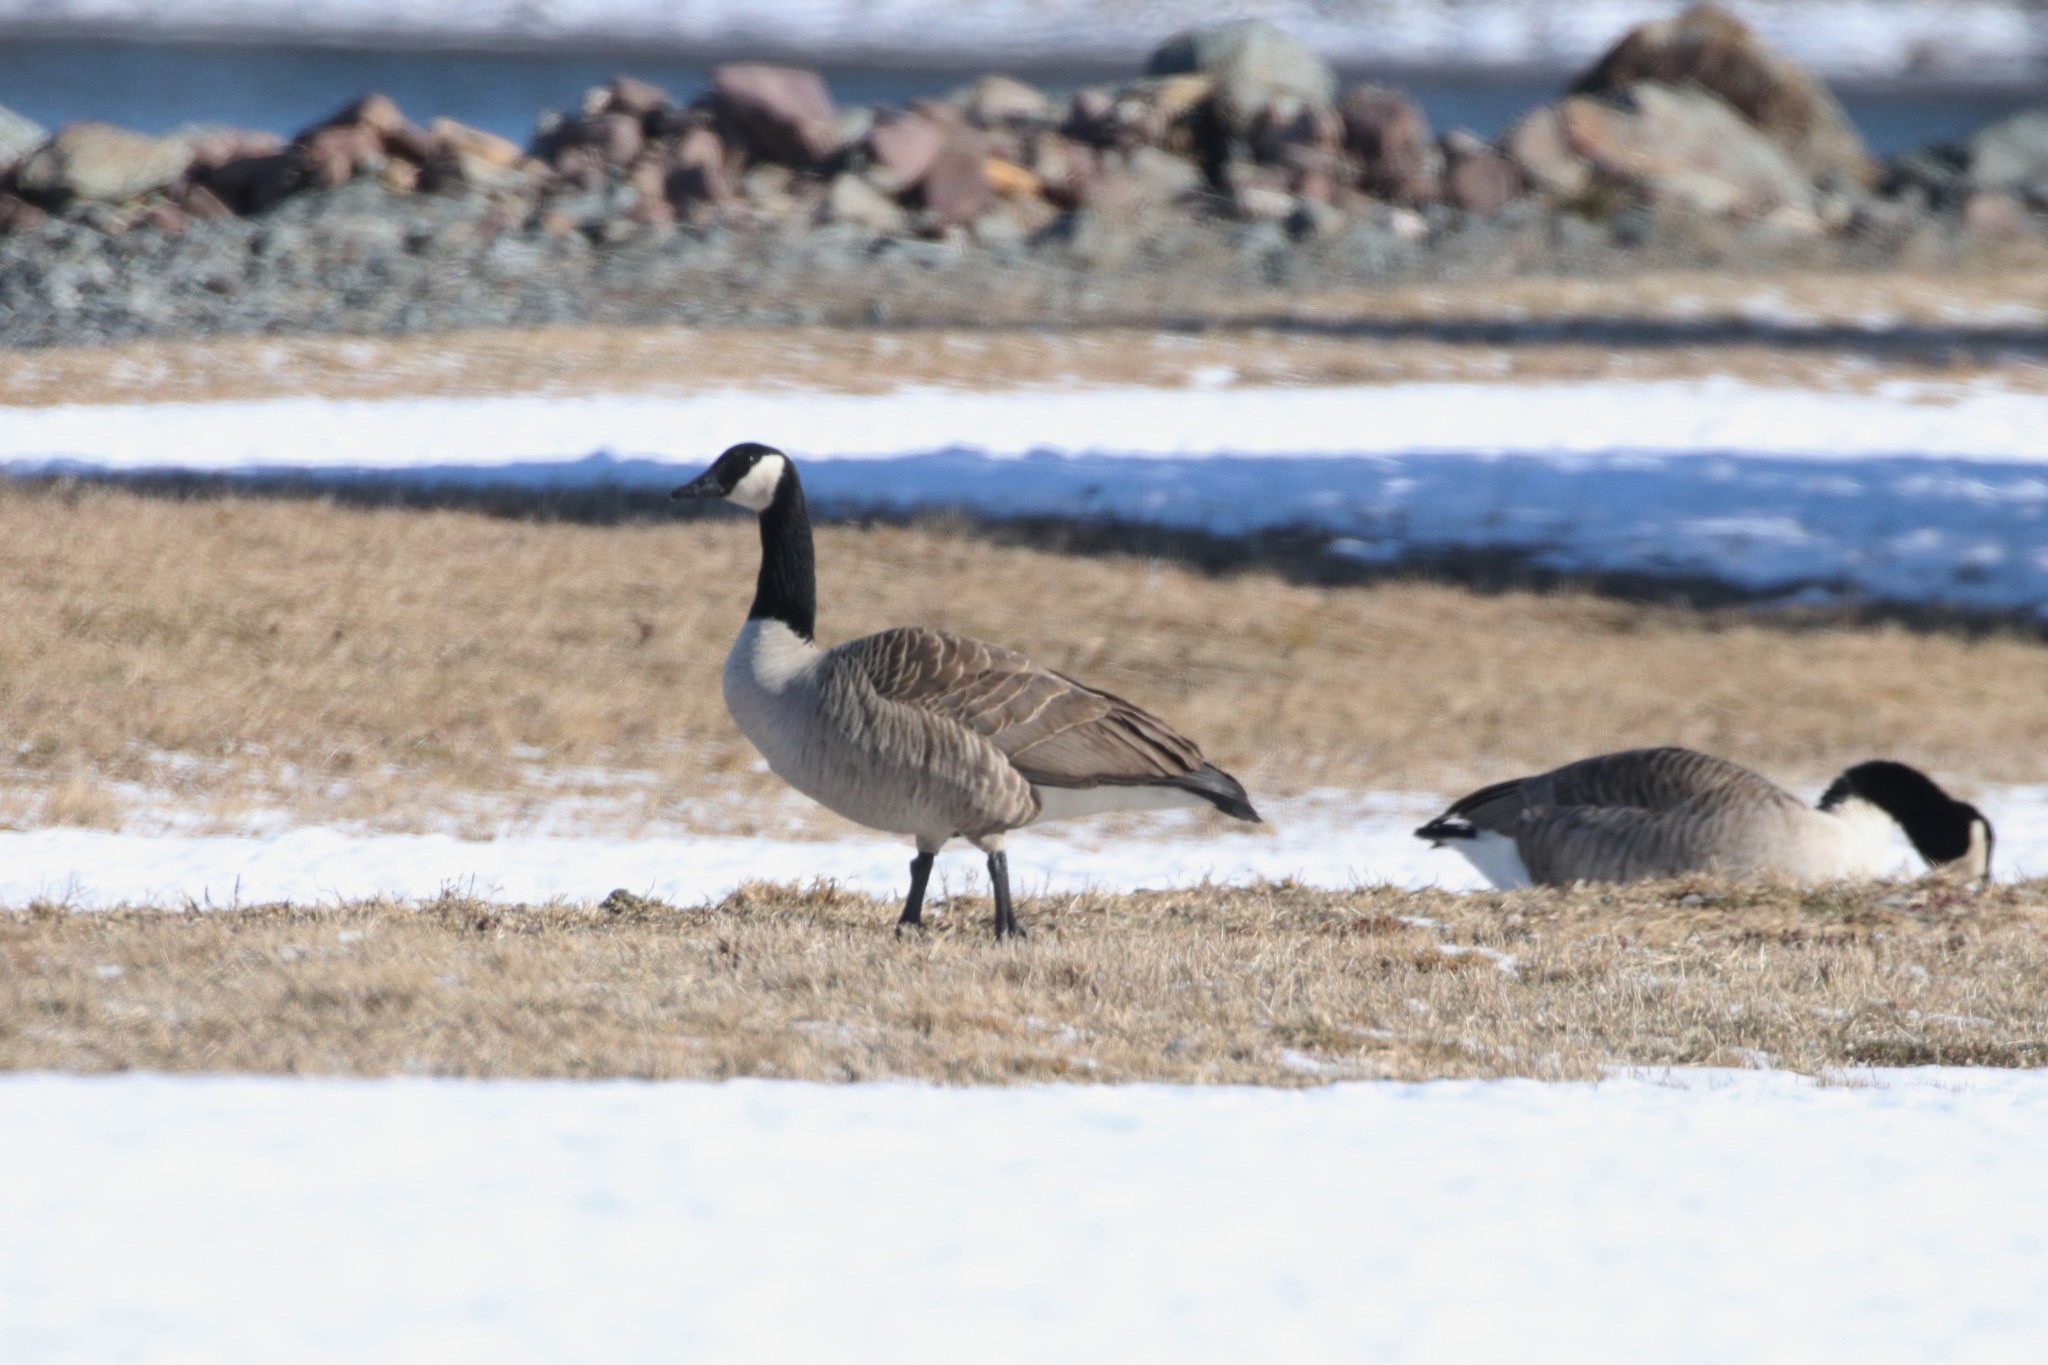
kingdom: Animalia
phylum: Chordata
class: Aves
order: Anseriformes
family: Anatidae
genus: Branta
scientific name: Branta canadensis
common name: Canada goose
